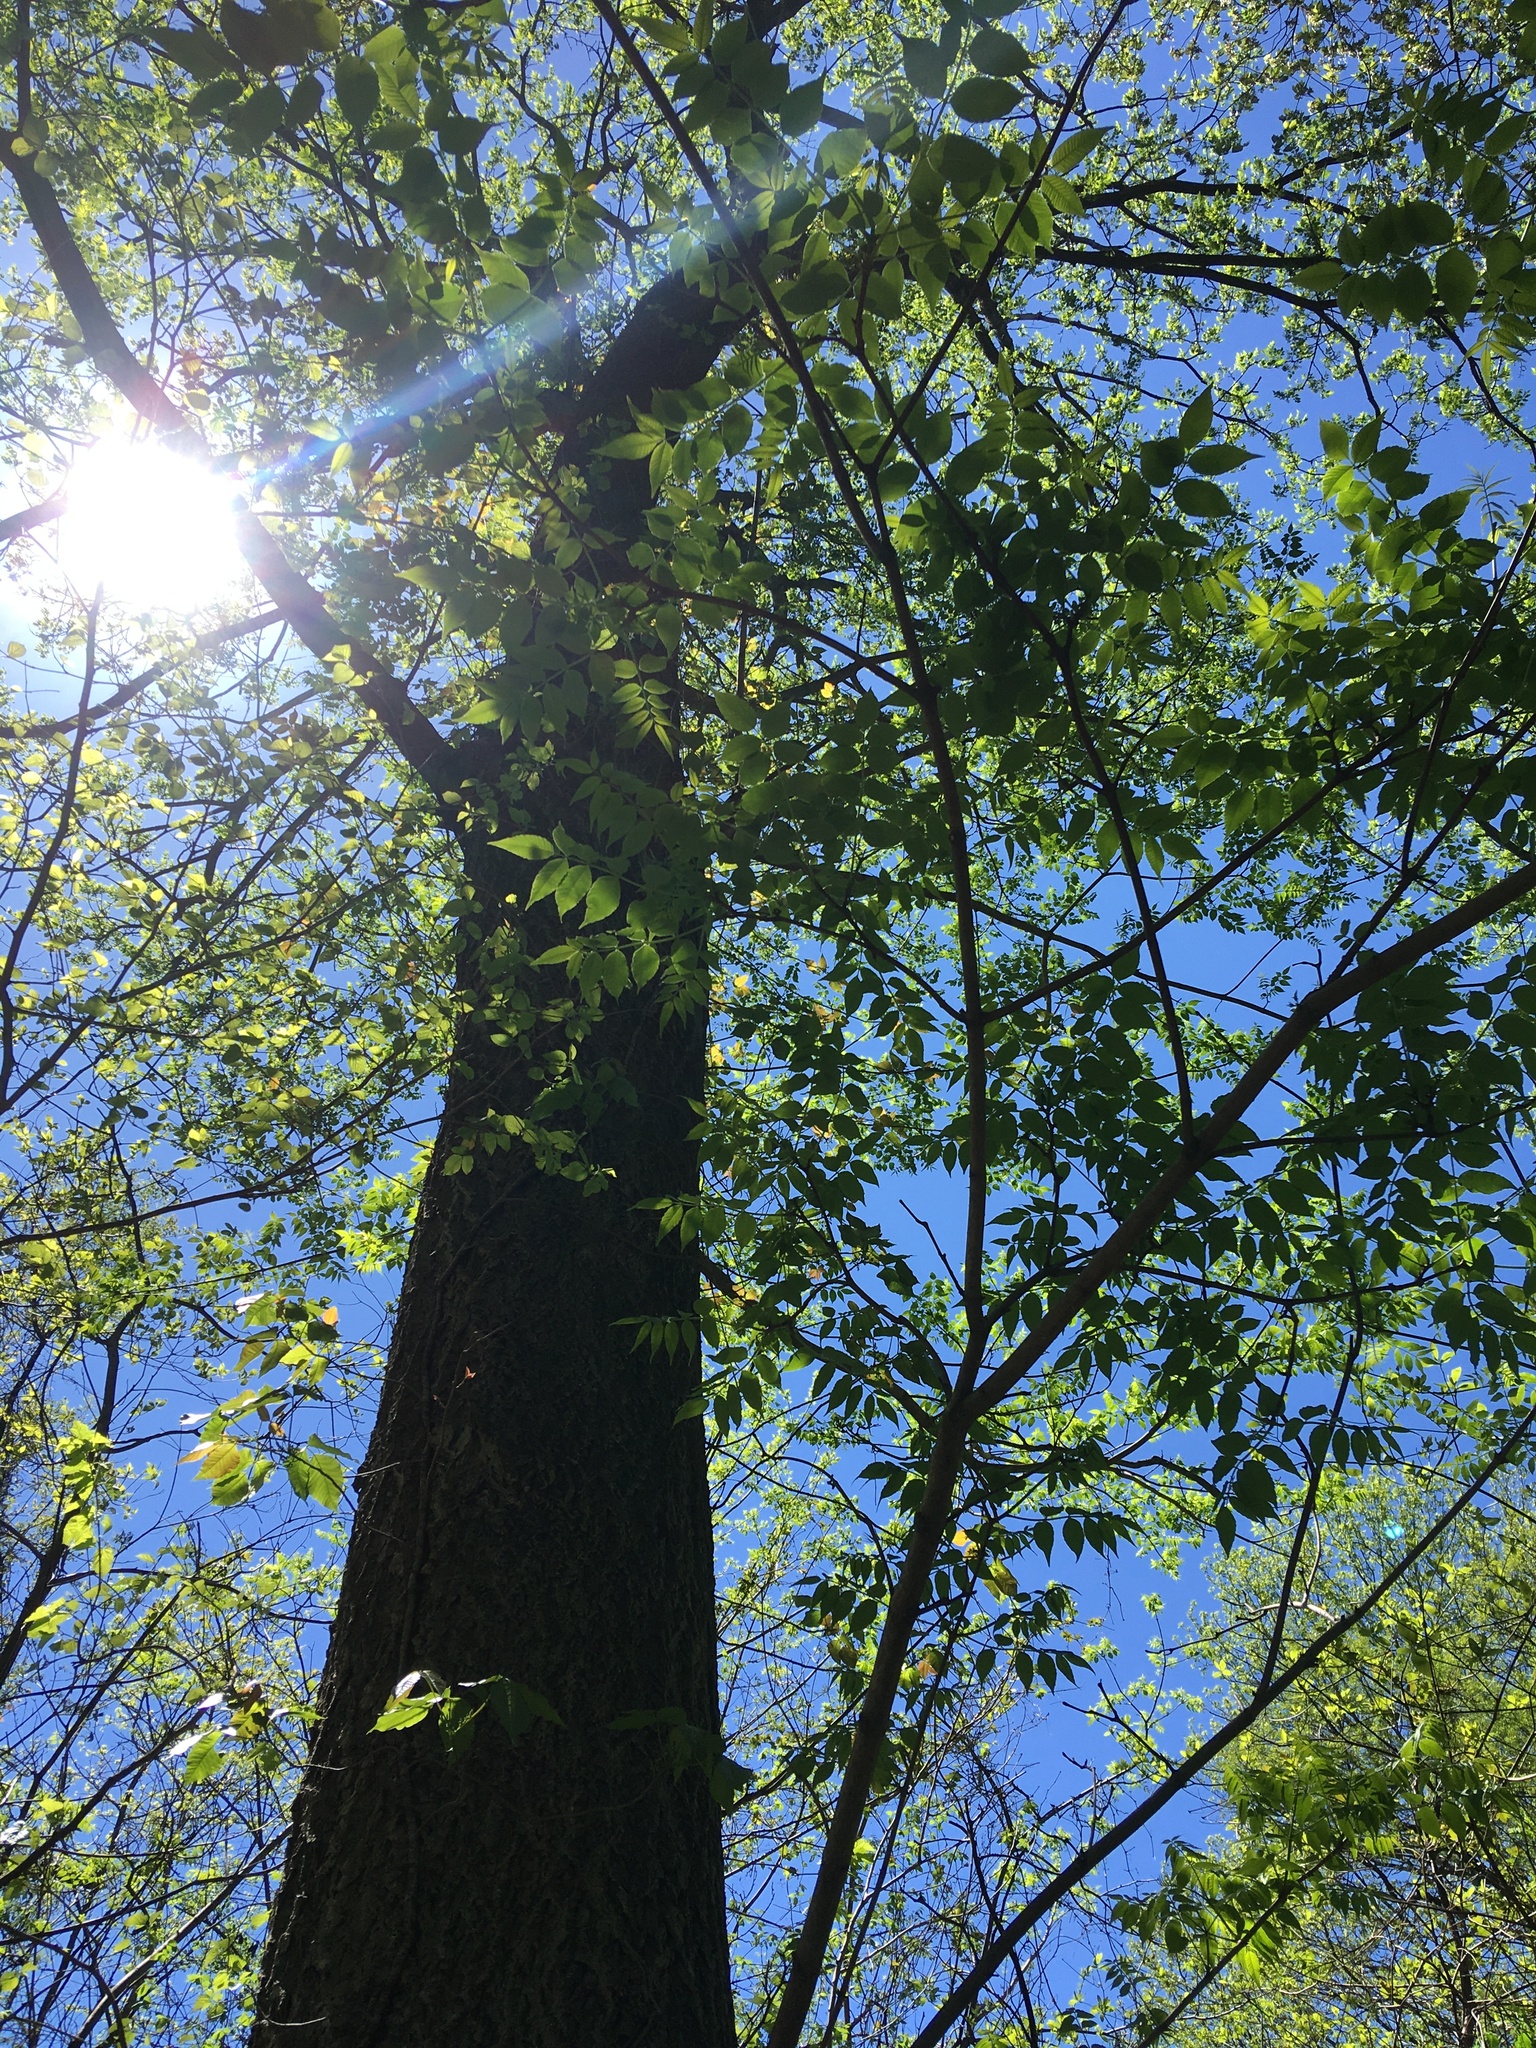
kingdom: Plantae
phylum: Tracheophyta
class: Magnoliopsida
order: Sapindales
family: Rutaceae
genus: Phellodendron
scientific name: Phellodendron amurense
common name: Amur corktree
